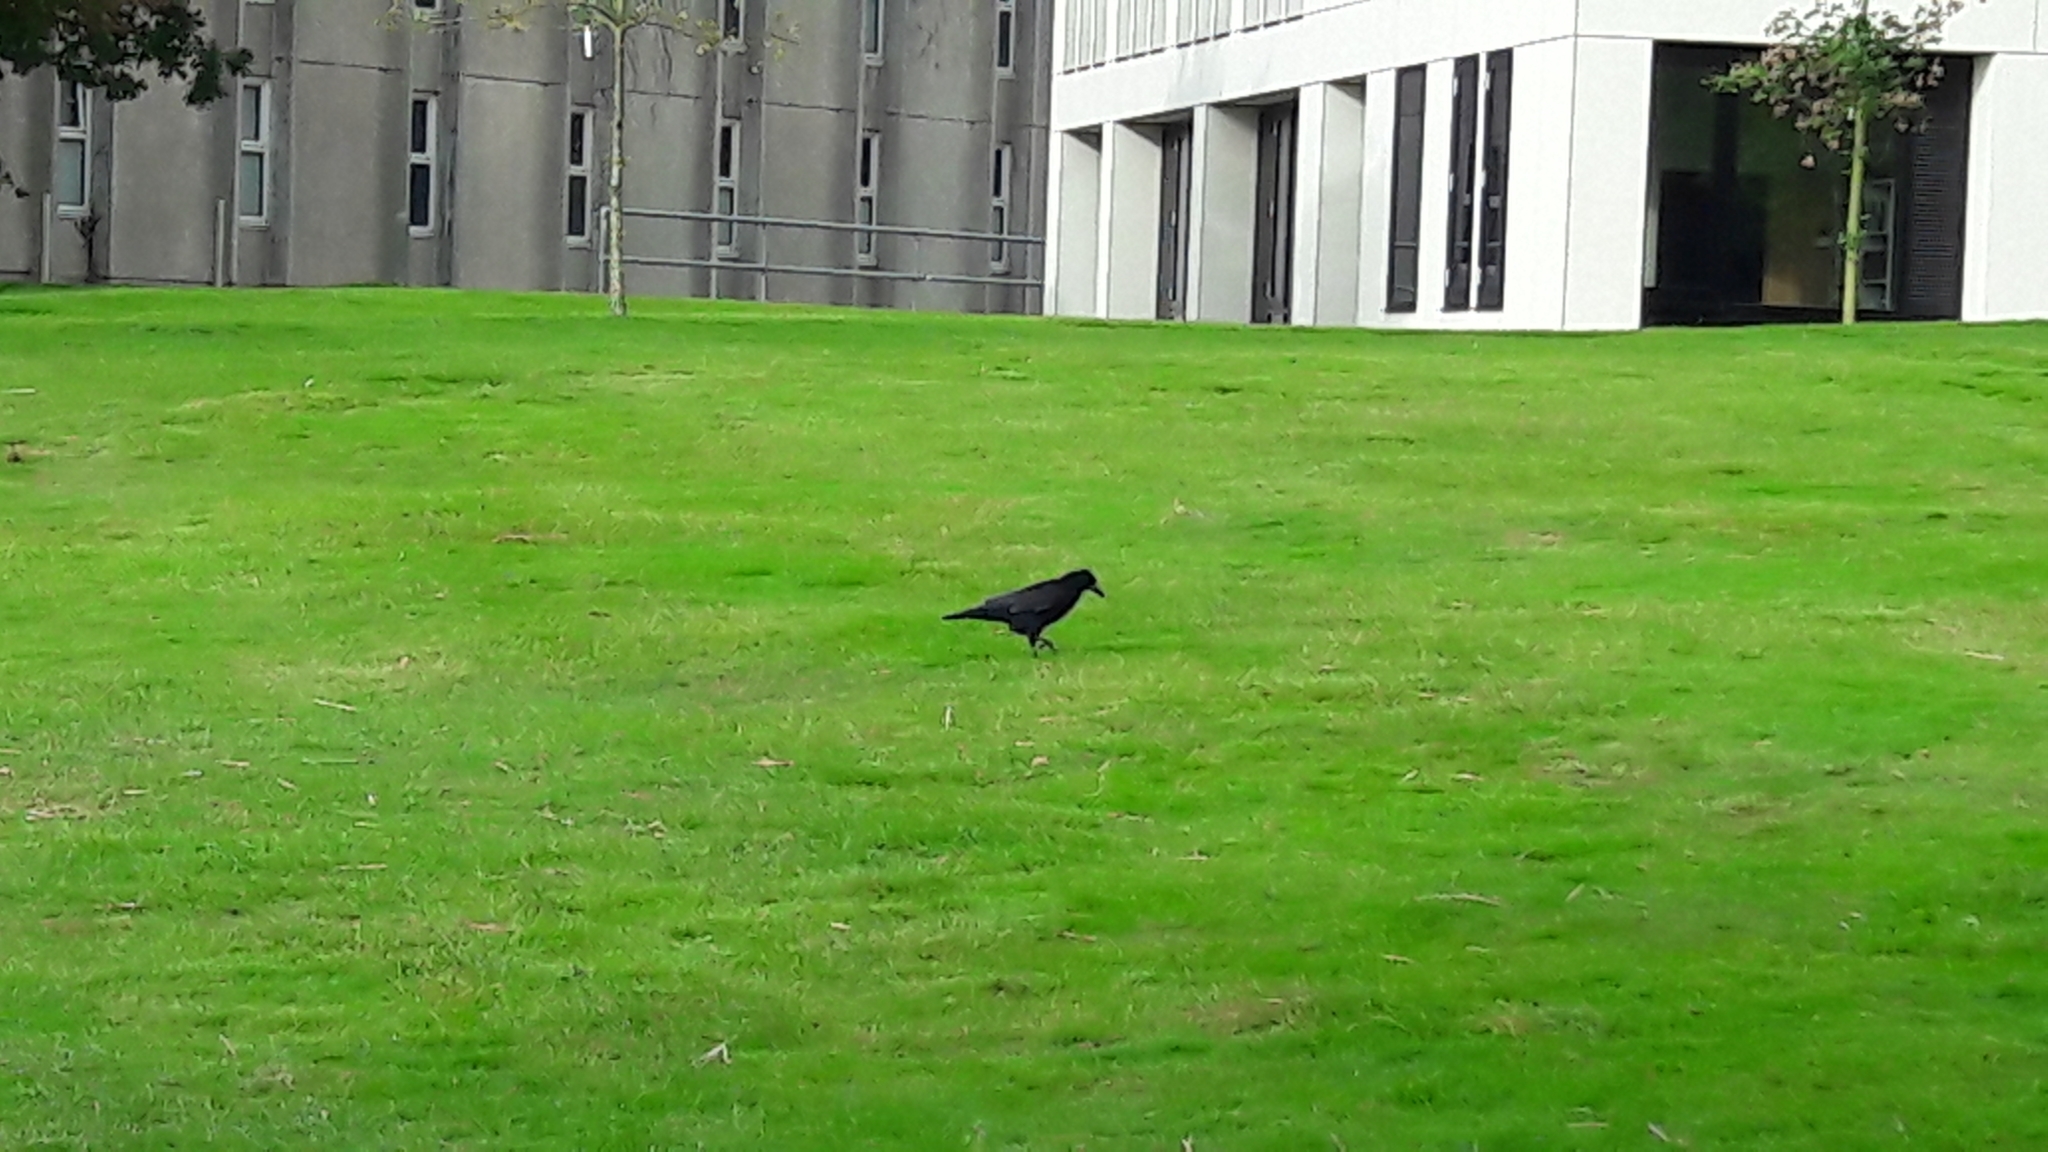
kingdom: Animalia
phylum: Chordata
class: Aves
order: Passeriformes
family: Corvidae
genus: Corvus
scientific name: Corvus frugilegus
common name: Rook
